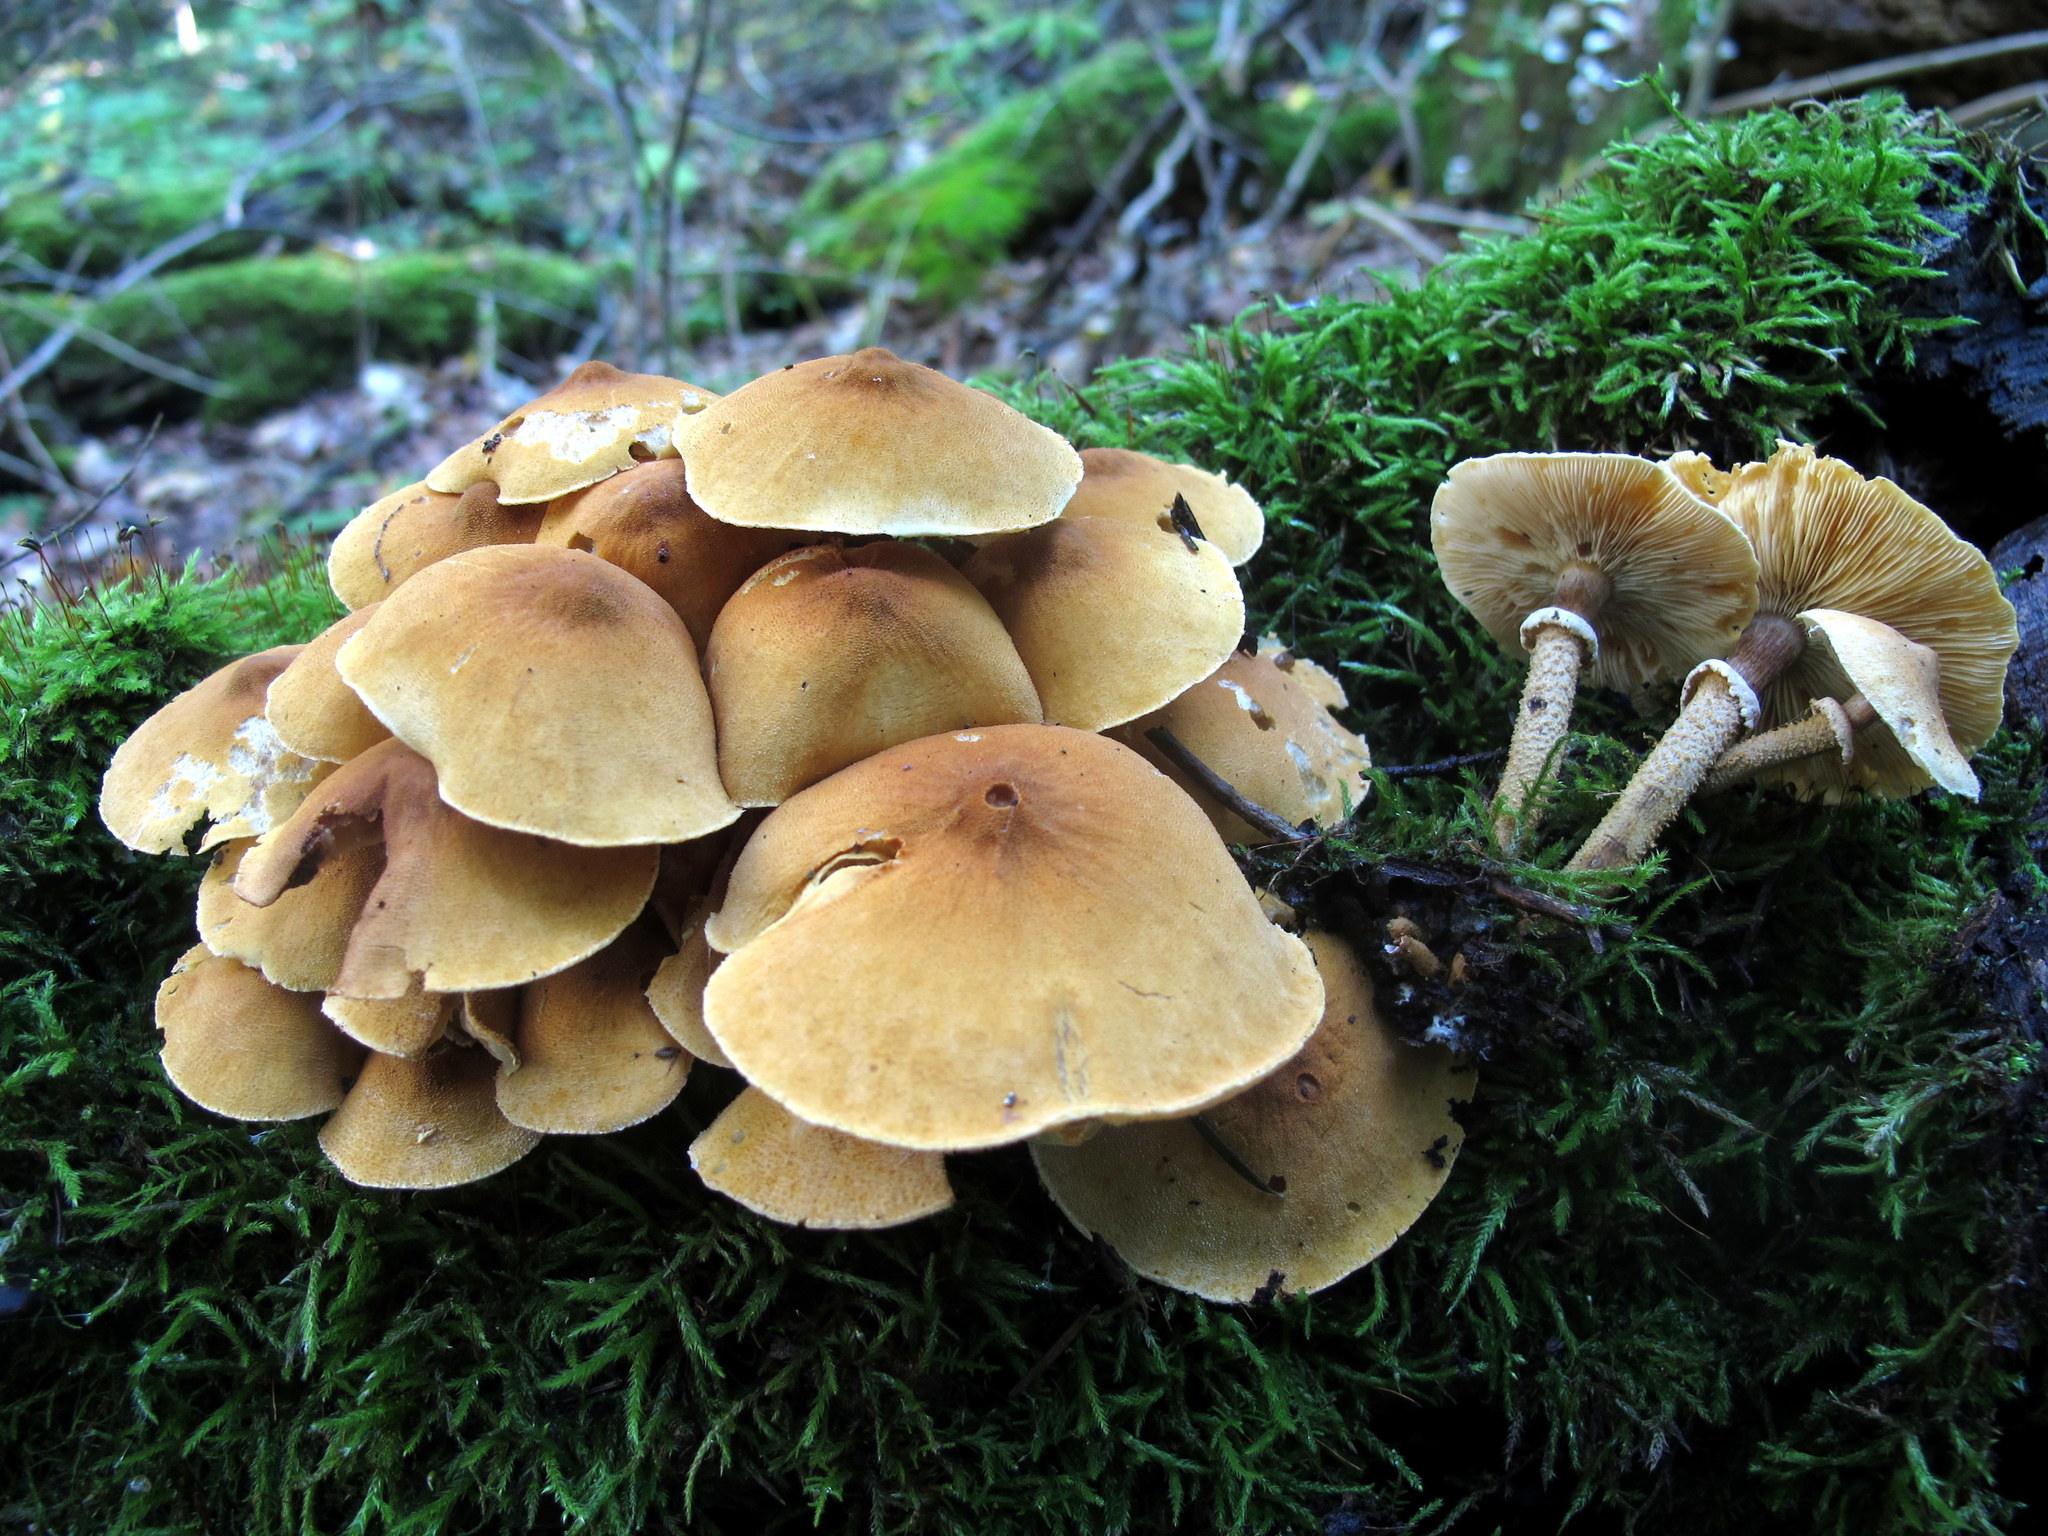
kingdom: Fungi
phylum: Basidiomycota
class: Agaricomycetes
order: Agaricales
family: Tricholomataceae
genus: Cystoderma
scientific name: Cystoderma granosum
